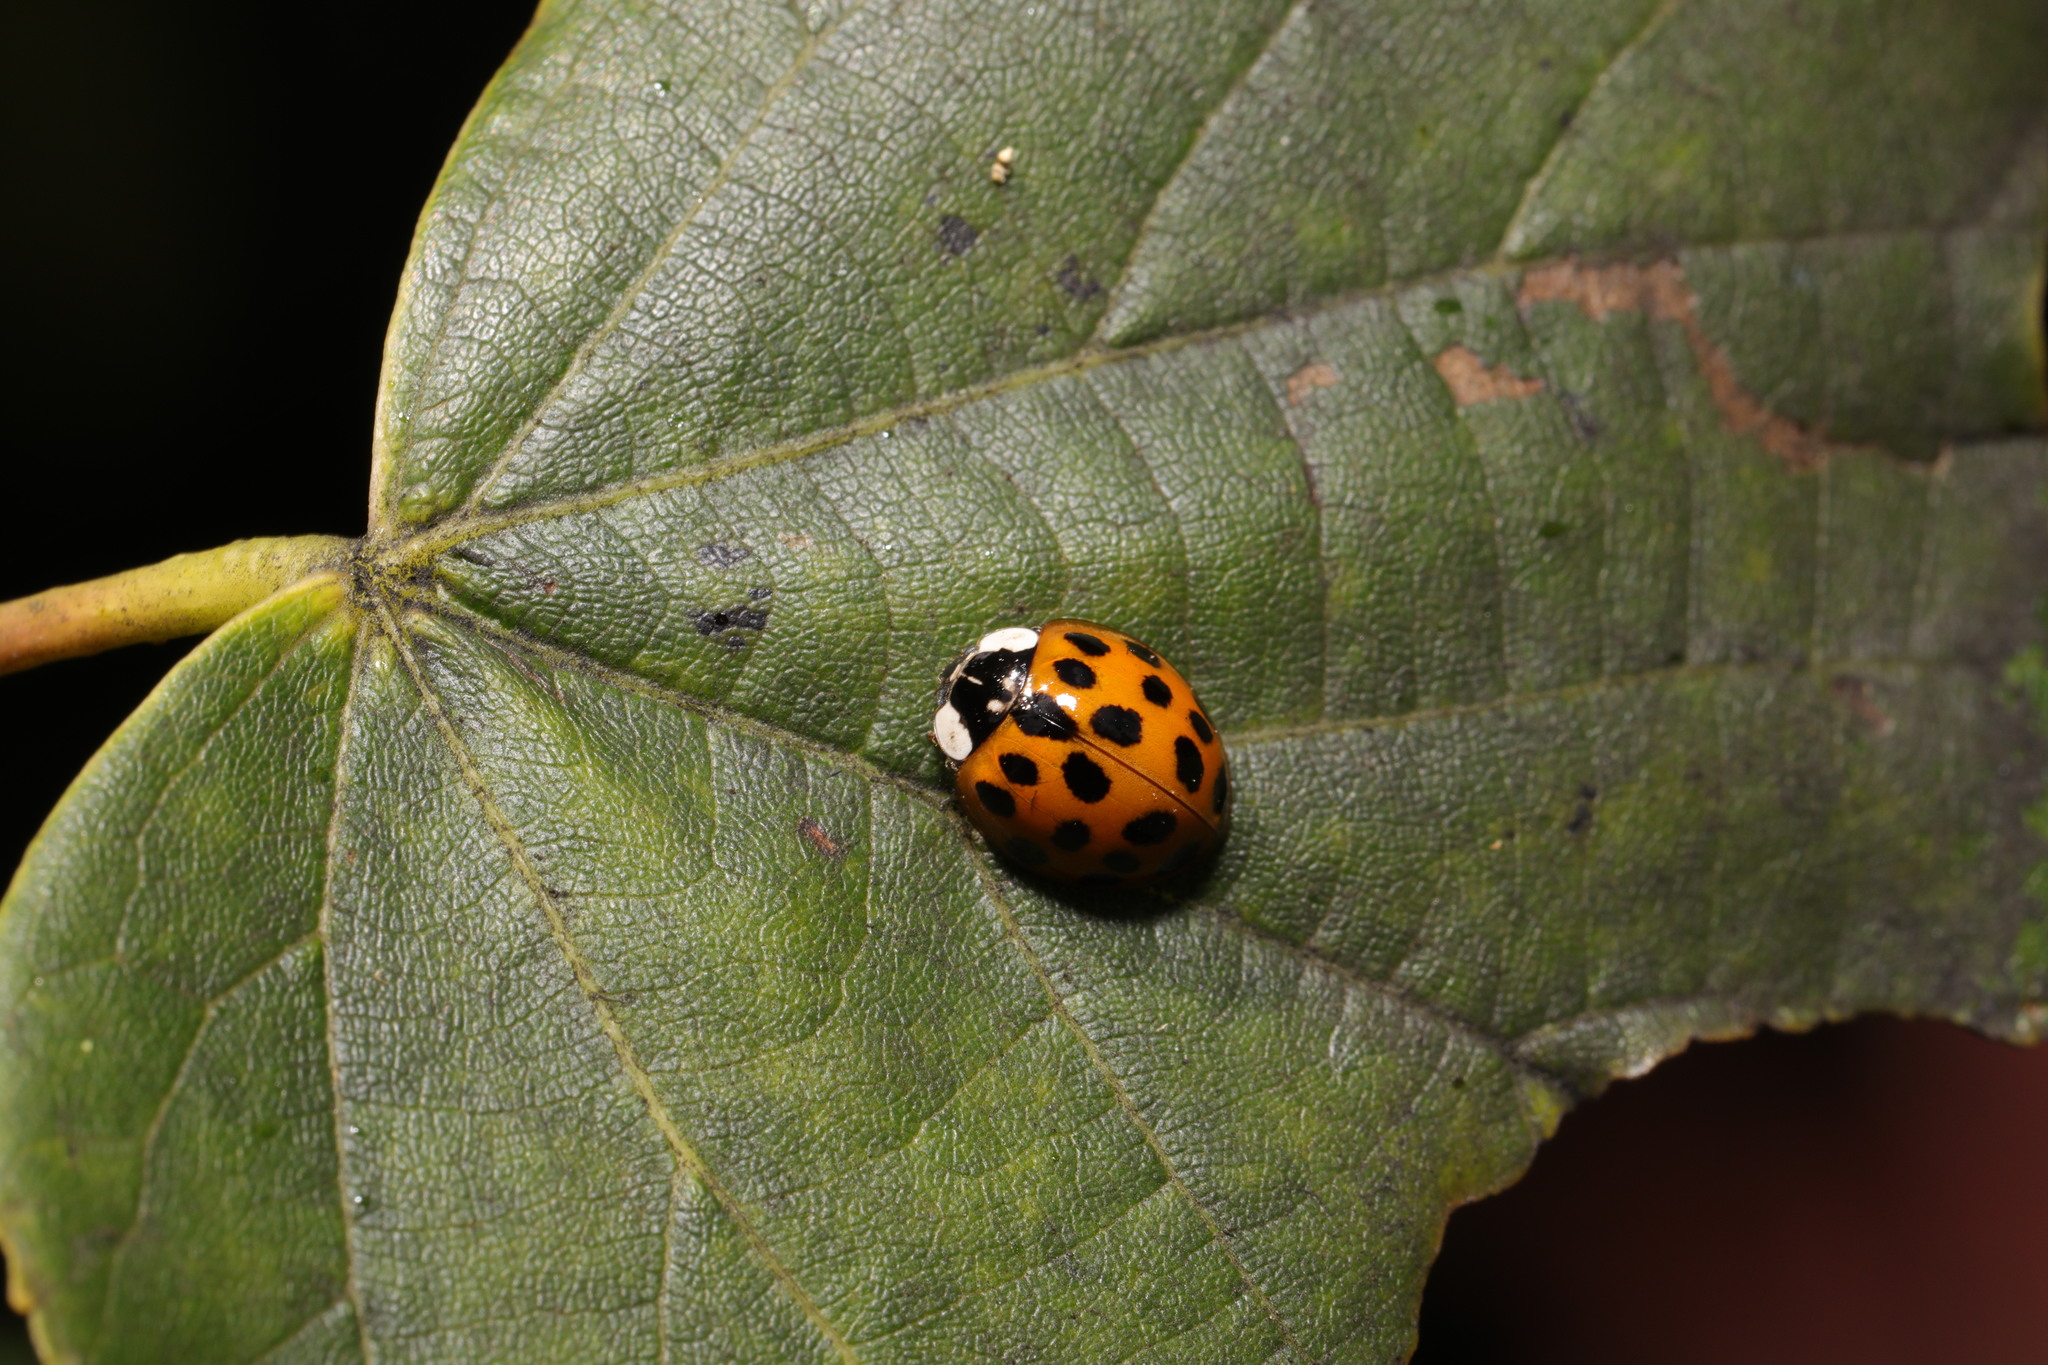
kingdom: Animalia
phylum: Arthropoda
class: Insecta
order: Coleoptera
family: Coccinellidae
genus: Harmonia
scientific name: Harmonia axyridis
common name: Harlequin ladybird
